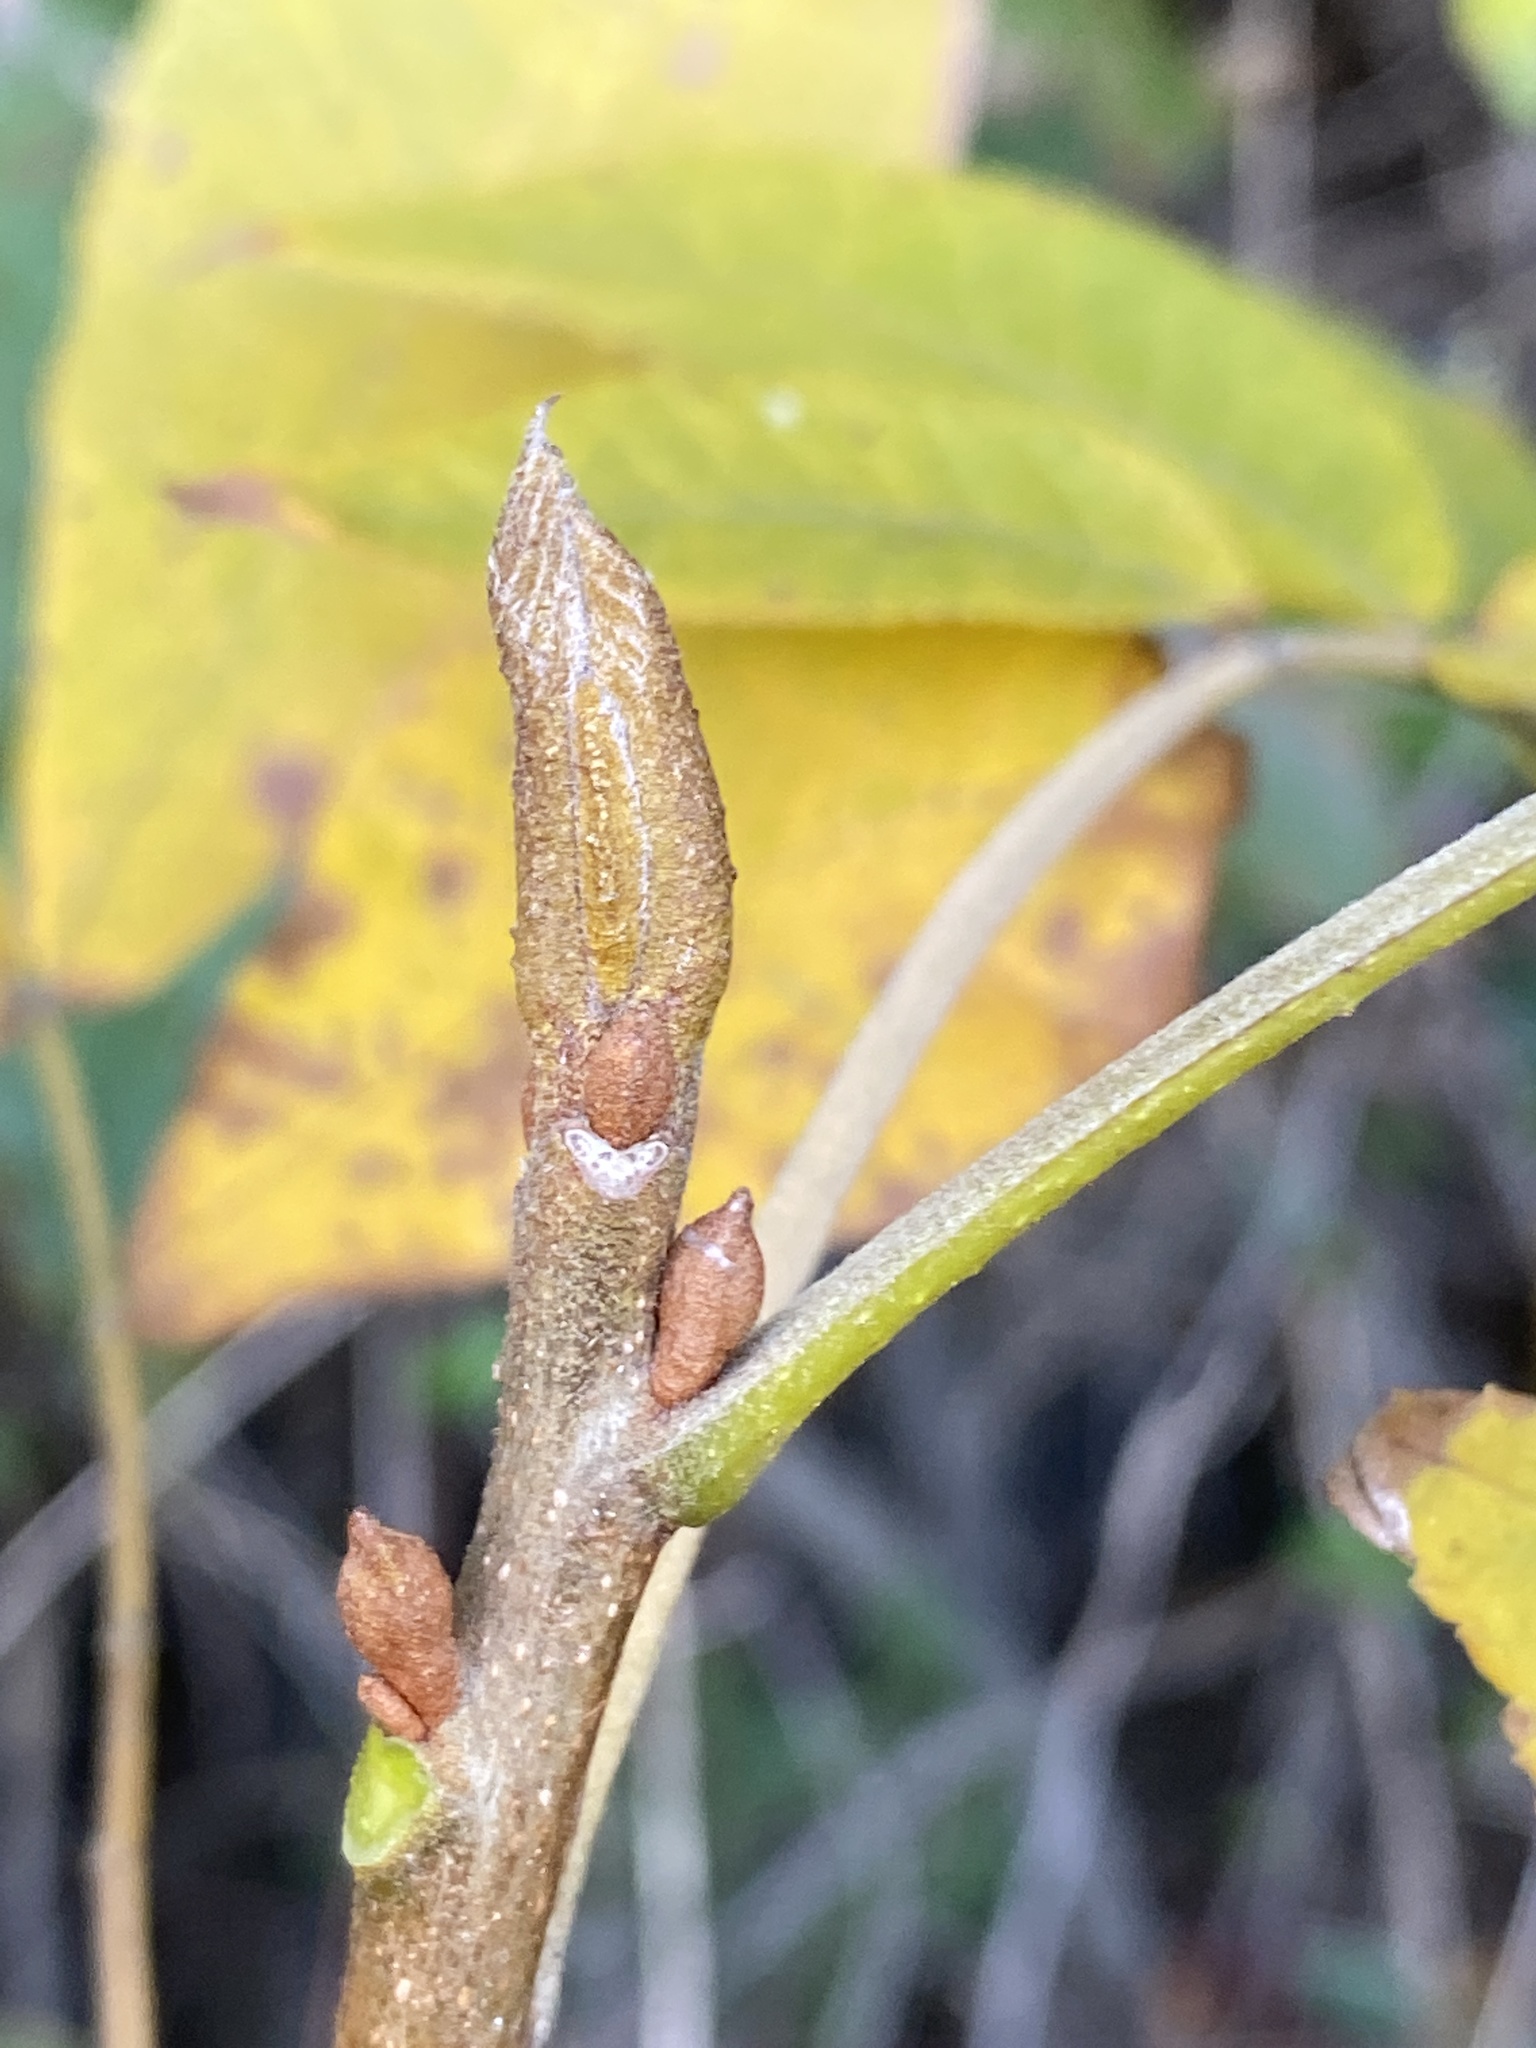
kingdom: Plantae
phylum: Tracheophyta
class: Magnoliopsida
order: Fagales
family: Juglandaceae
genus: Carya
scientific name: Carya cordiformis
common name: Bitternut hickory
